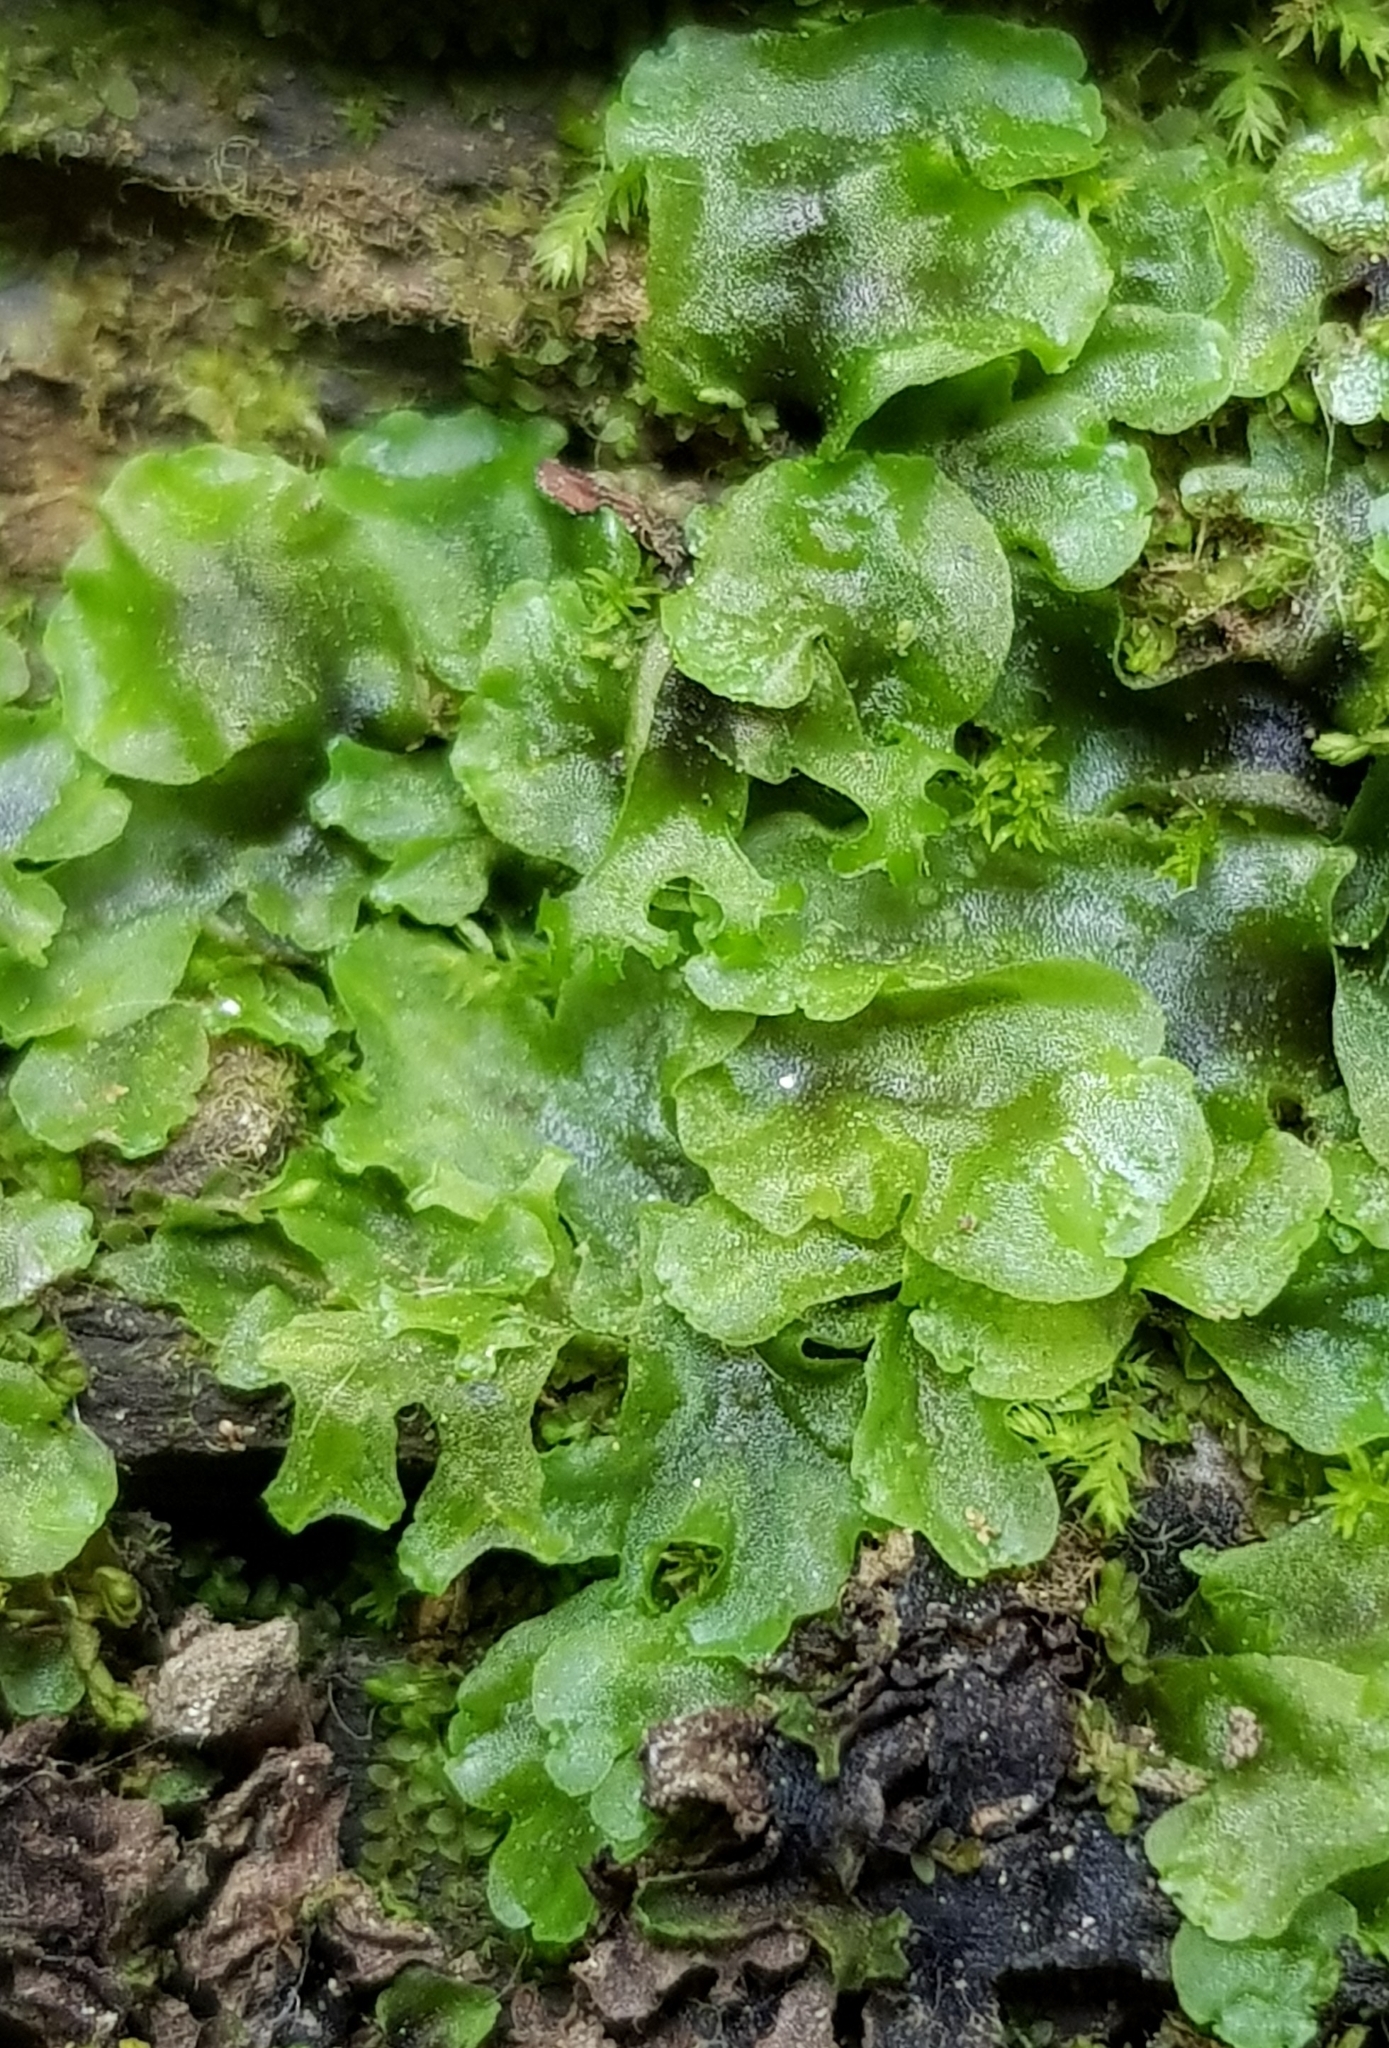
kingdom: Plantae
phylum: Marchantiophyta
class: Jungermanniopsida
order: Pelliales
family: Pelliaceae
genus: Apopellia
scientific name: Apopellia endiviifolia
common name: Endive pellia
